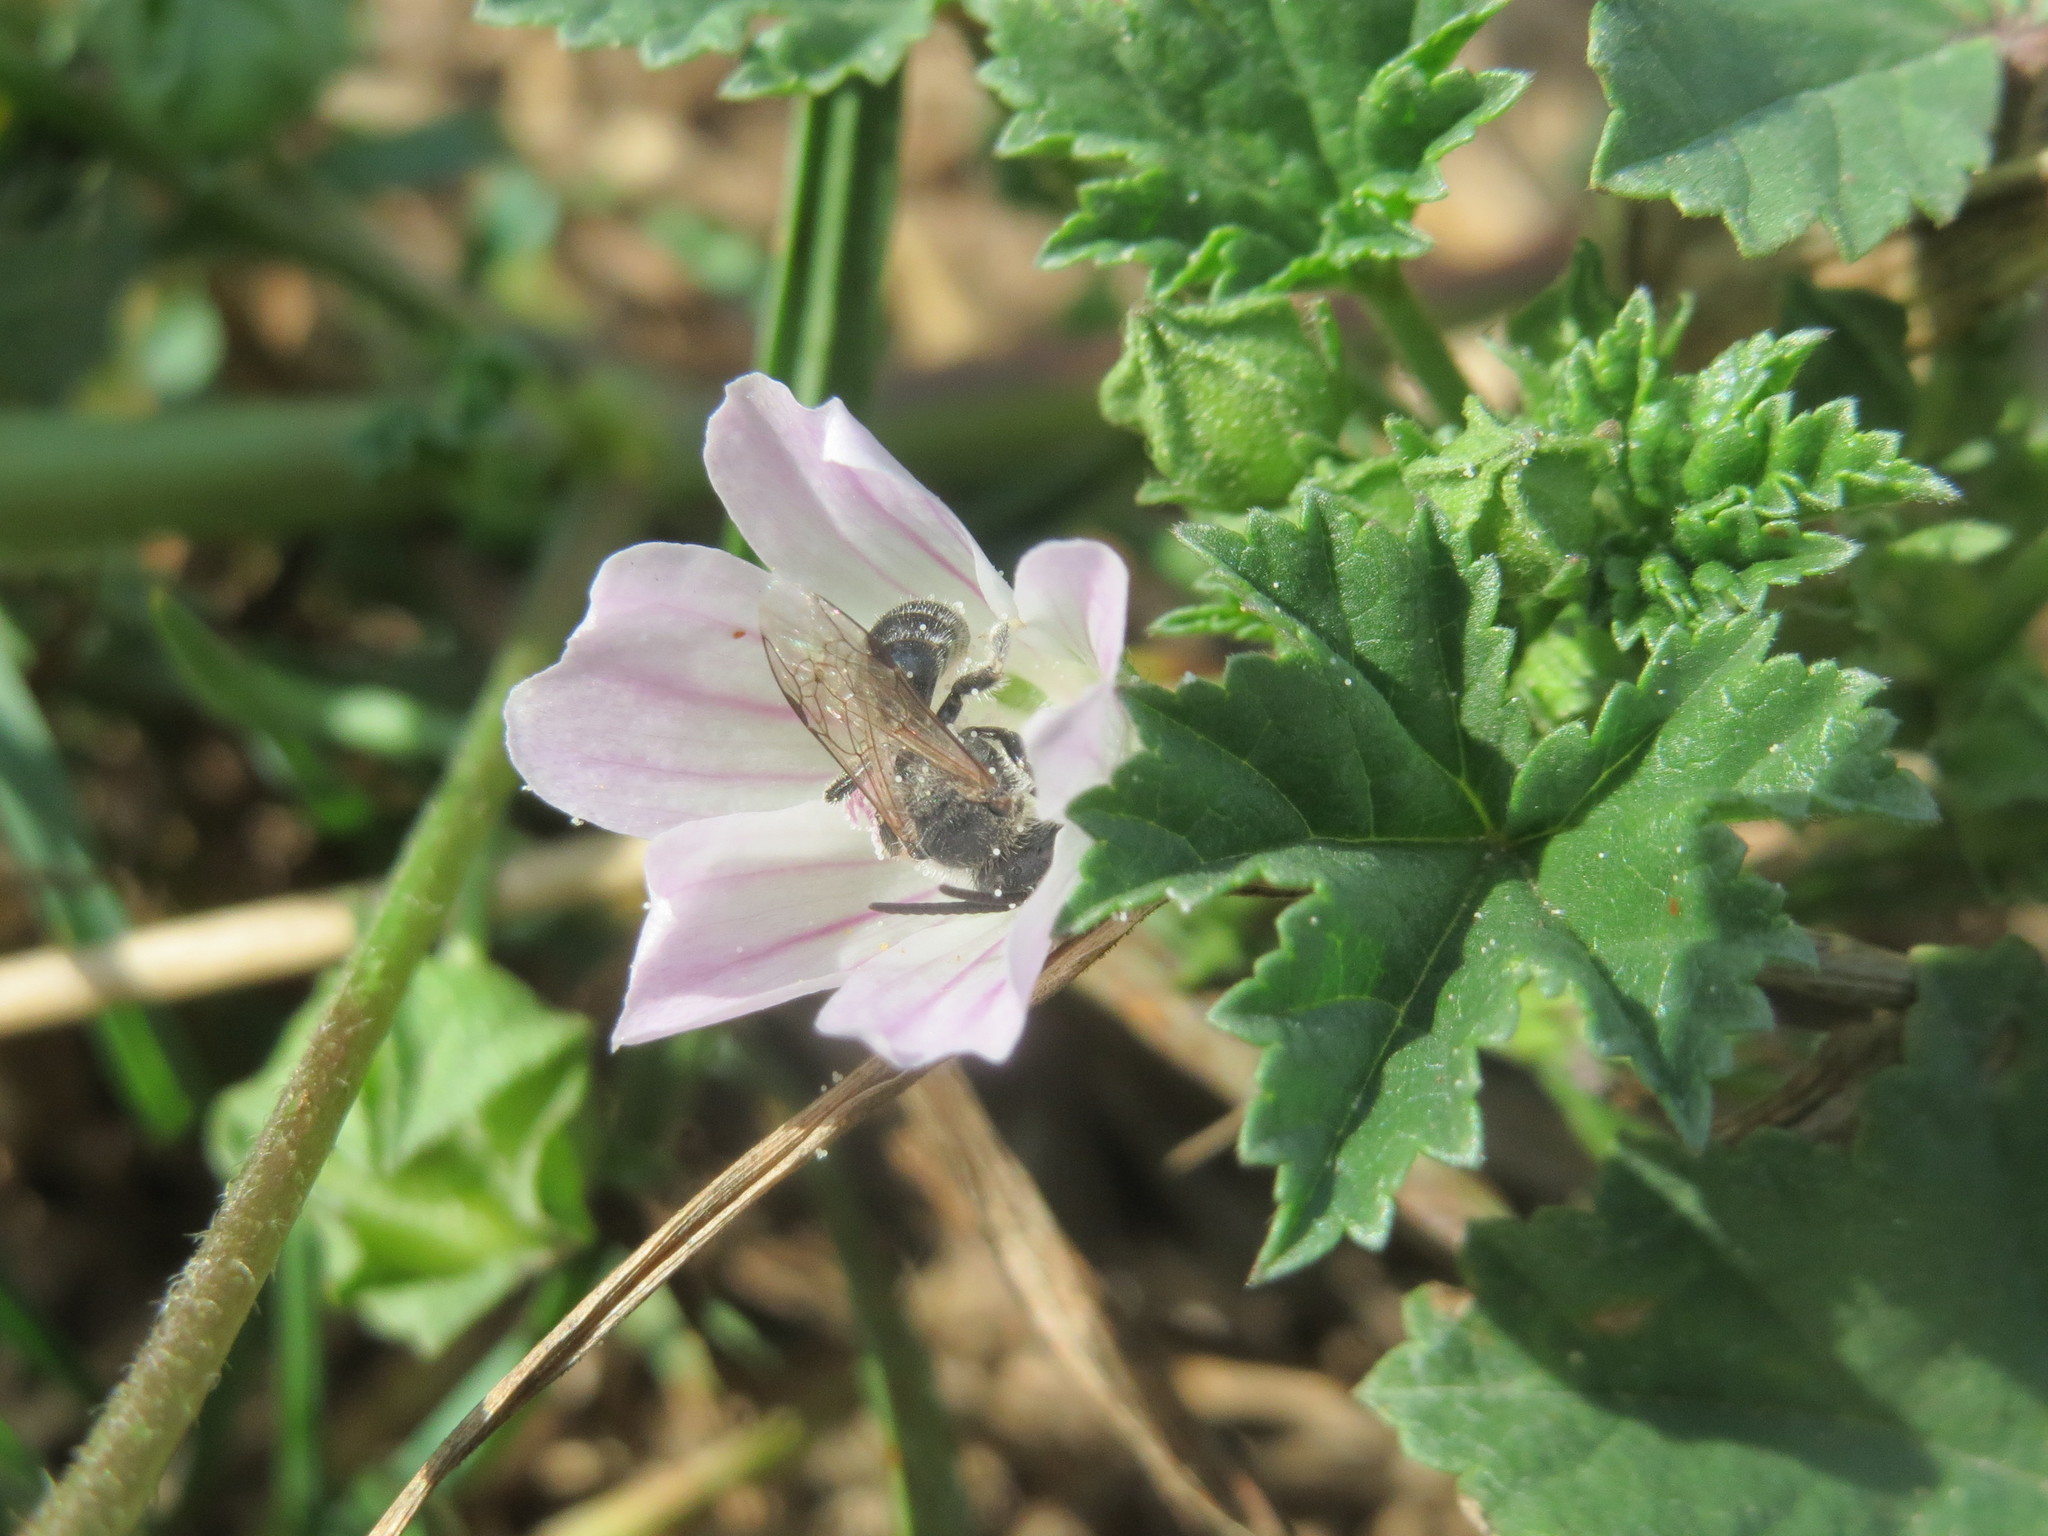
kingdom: Plantae
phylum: Tracheophyta
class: Magnoliopsida
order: Malvales
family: Malvaceae
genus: Malva
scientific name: Malva neglecta
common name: Common mallow
